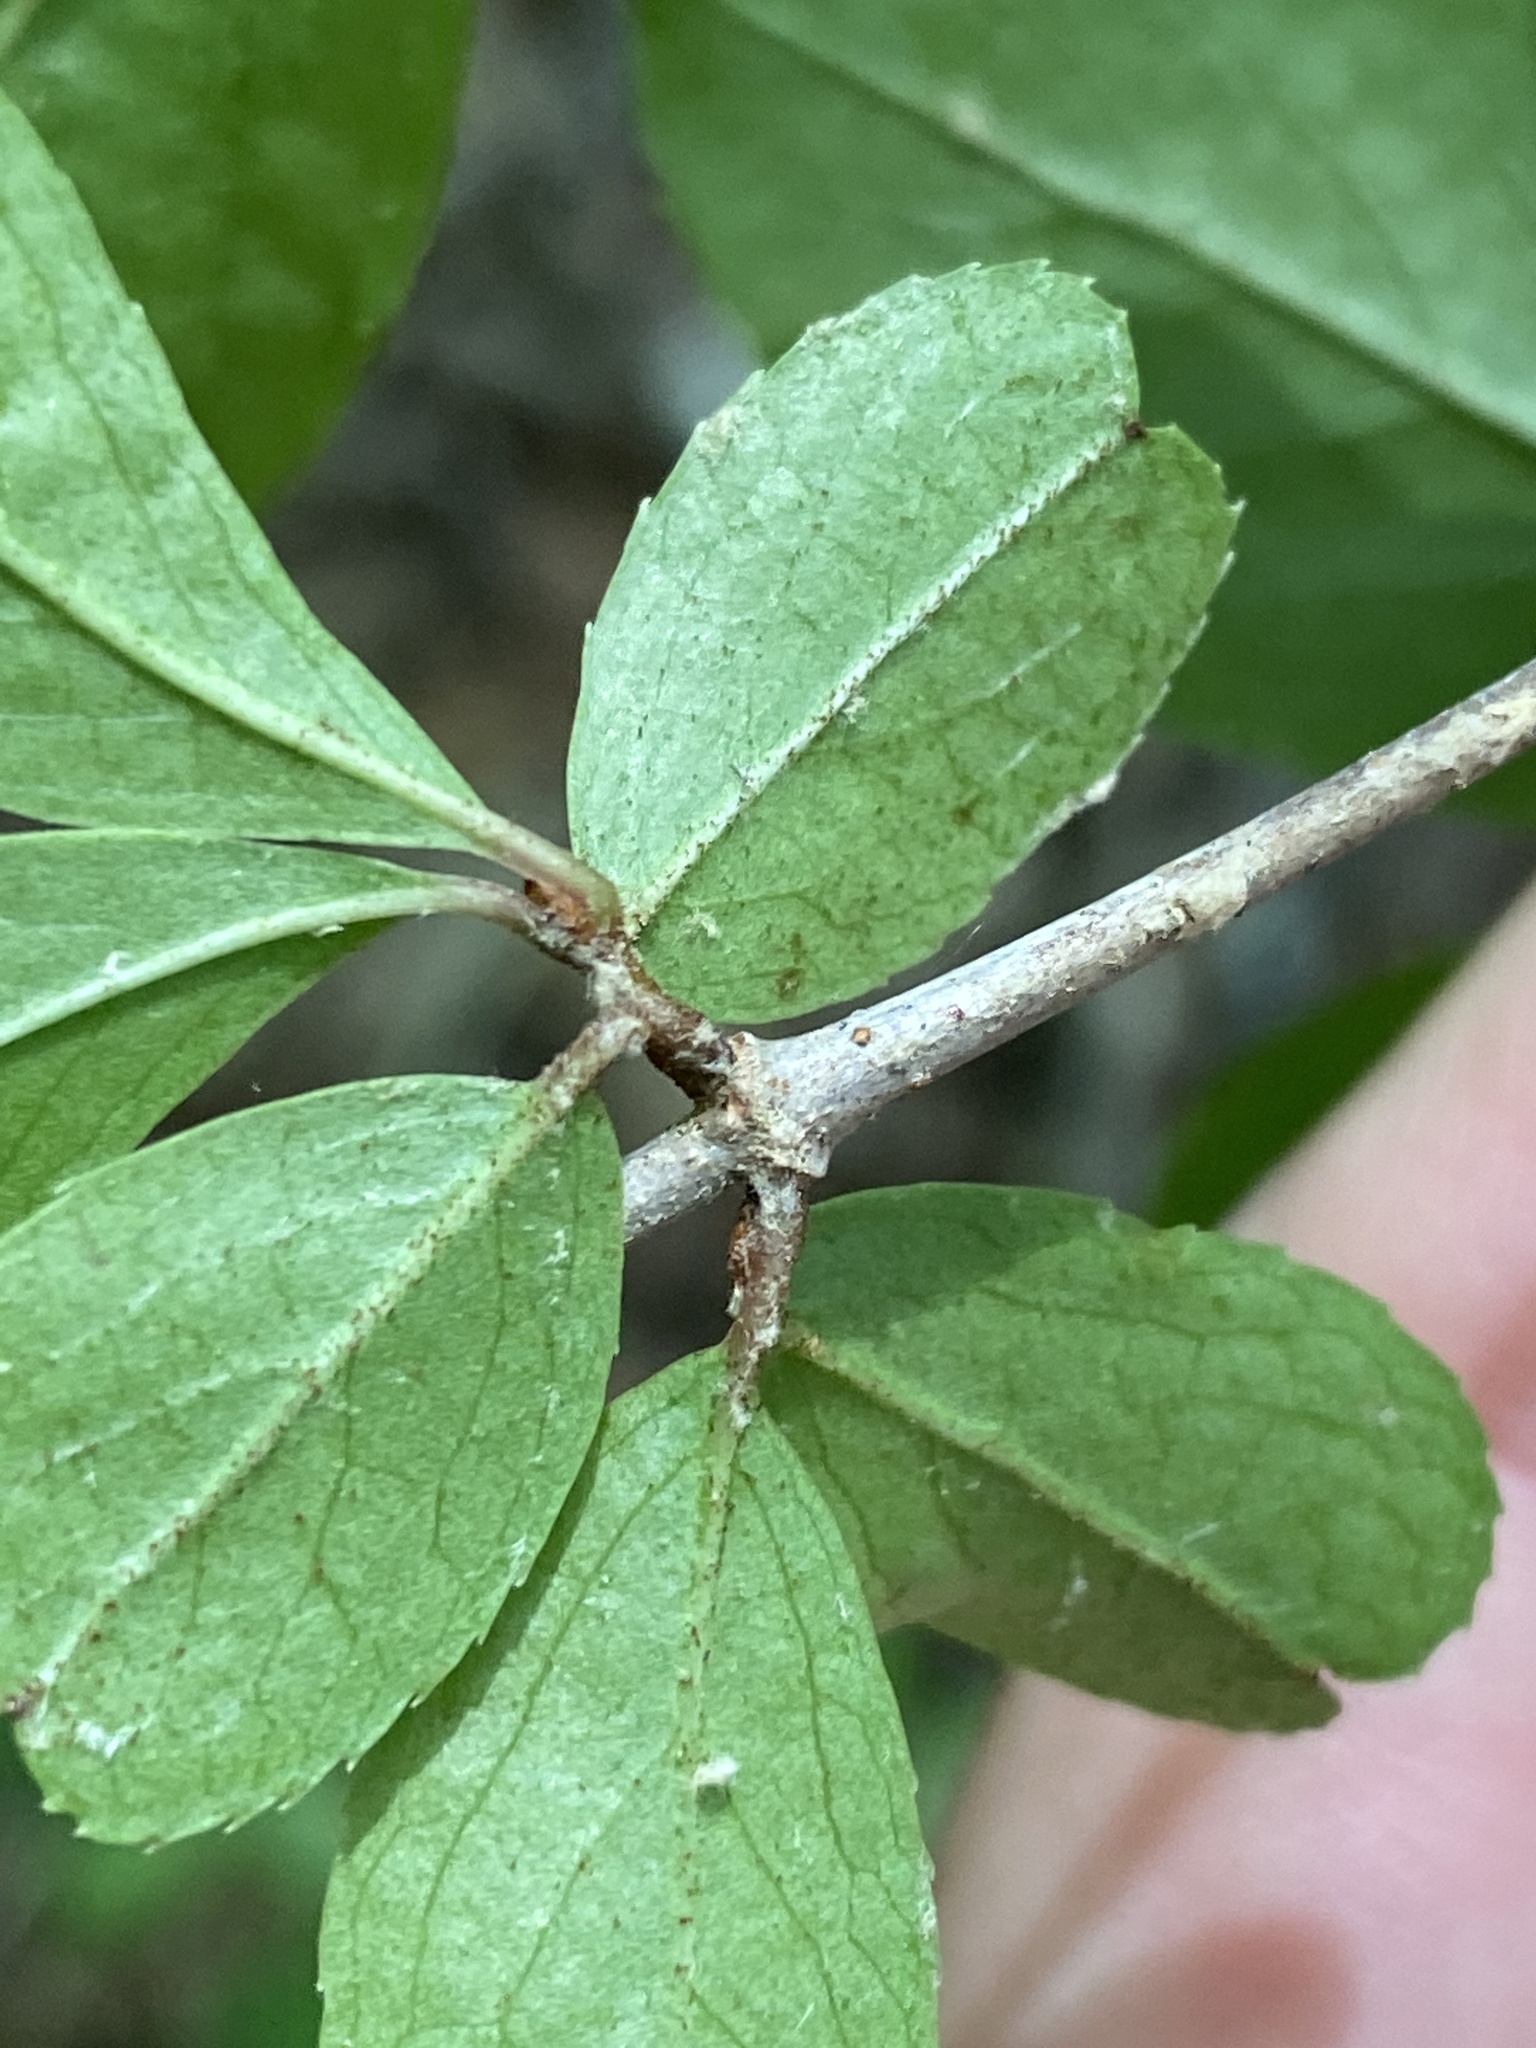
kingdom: Plantae
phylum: Tracheophyta
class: Magnoliopsida
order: Dipsacales
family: Viburnaceae
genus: Viburnum
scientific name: Viburnum rufidulum
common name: Blue haw
